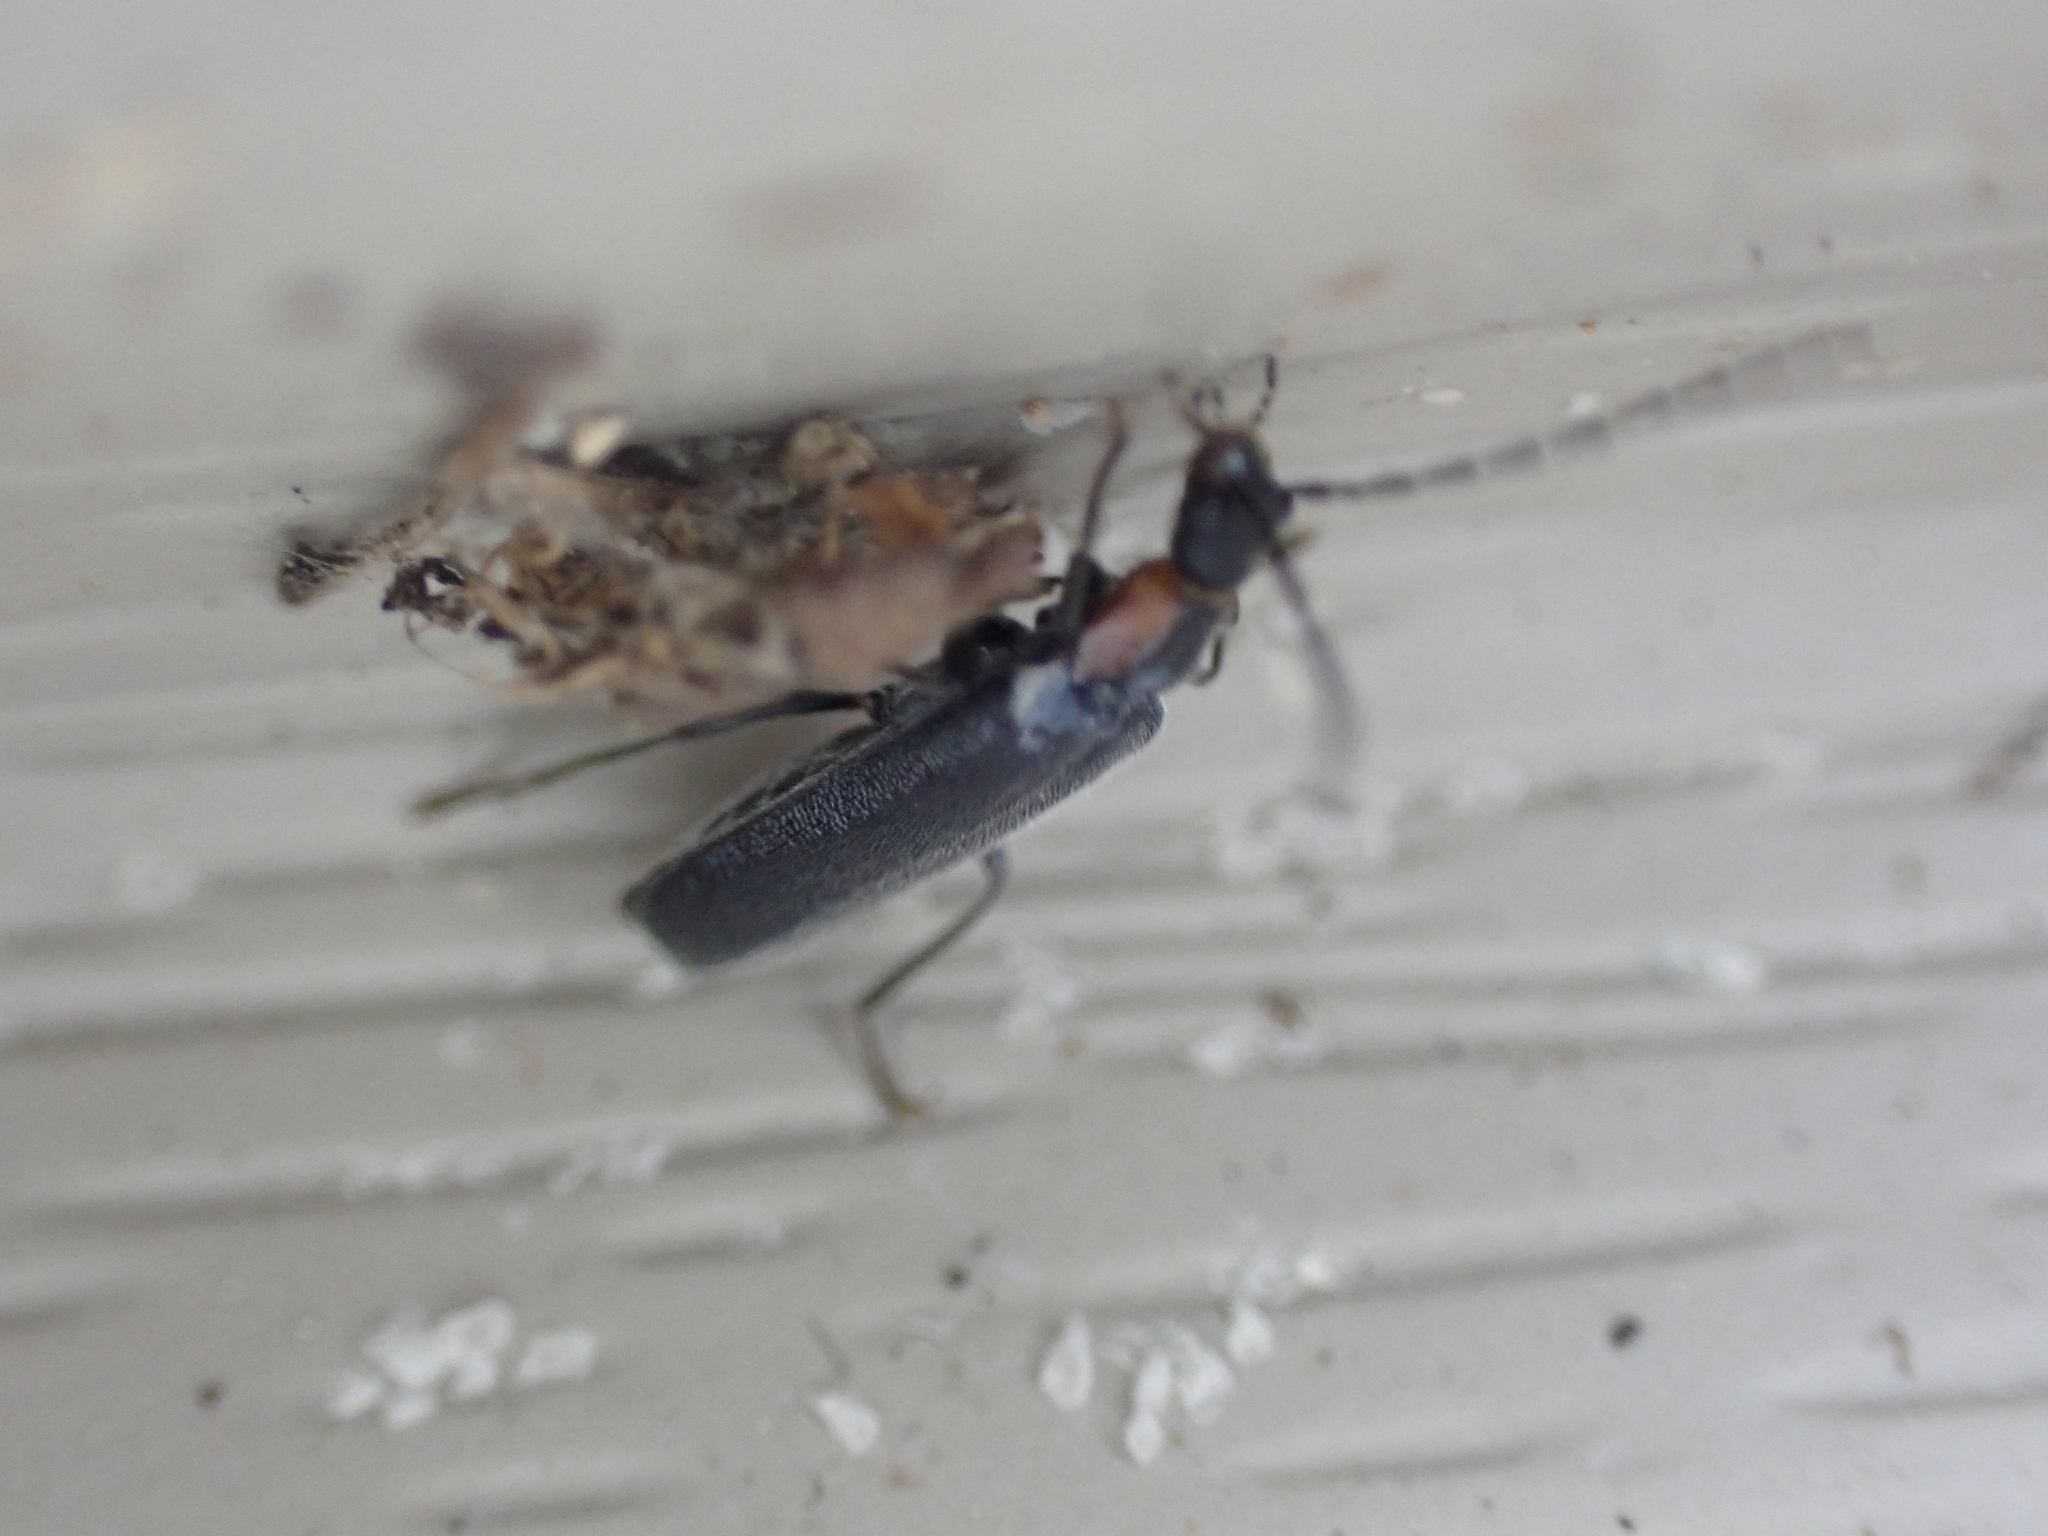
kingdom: Animalia
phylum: Arthropoda
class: Insecta
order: Coleoptera
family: Cantharidae
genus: Rhagonycha
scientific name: Rhagonycha angulata
